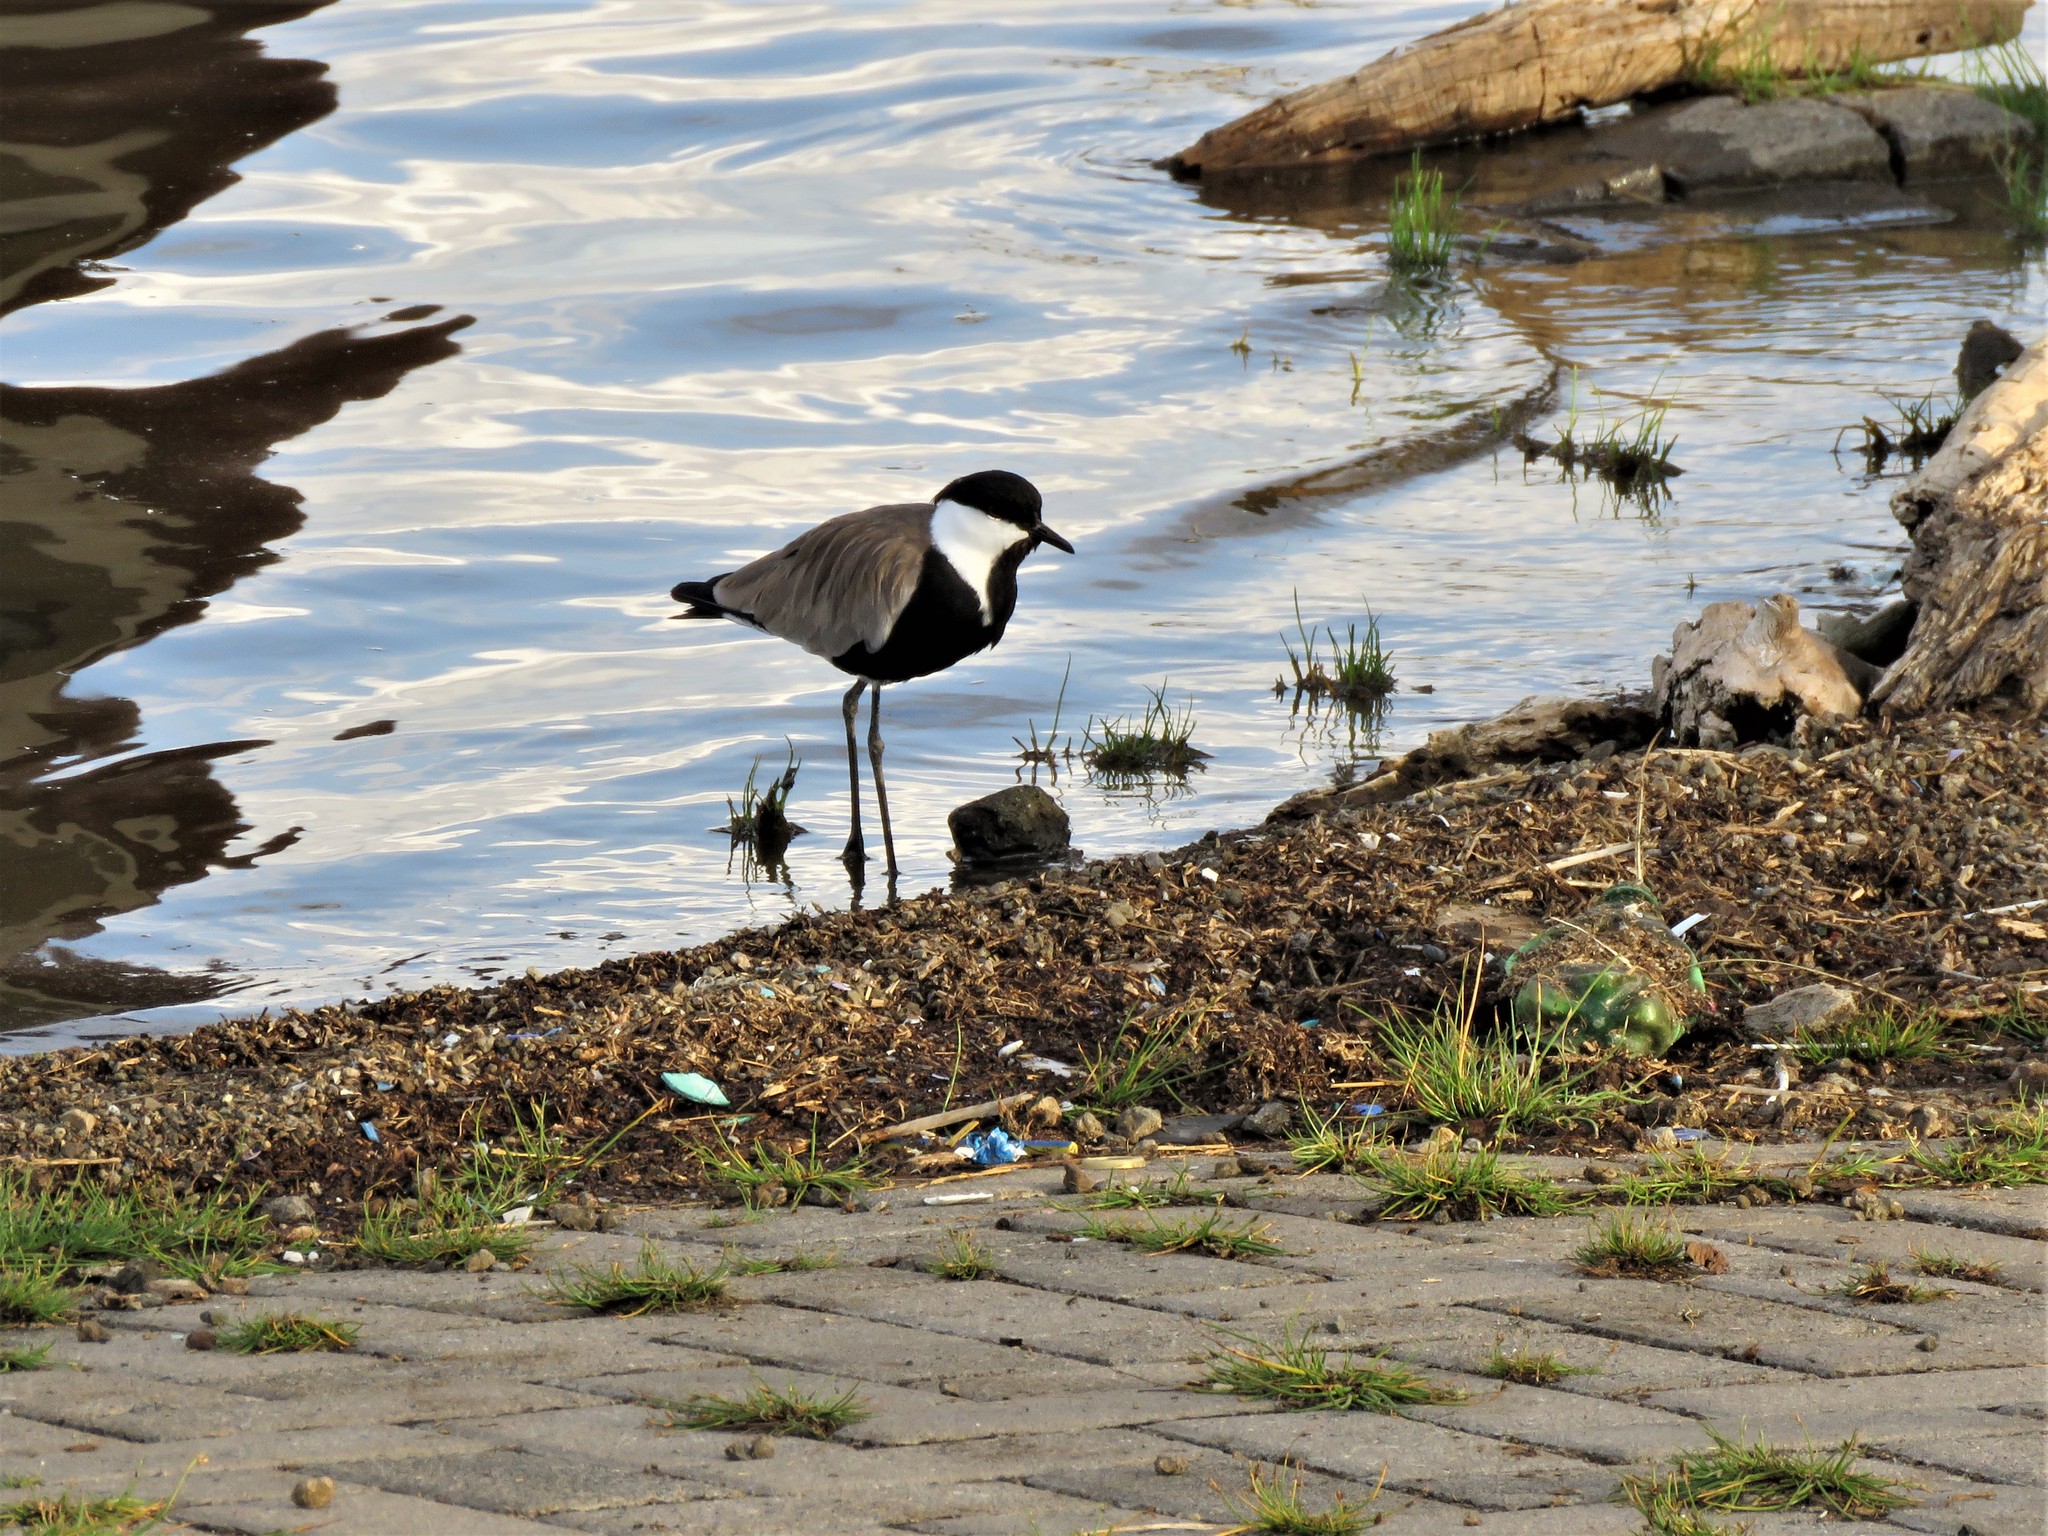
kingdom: Animalia
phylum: Chordata
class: Aves
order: Charadriiformes
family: Charadriidae
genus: Vanellus
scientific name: Vanellus spinosus
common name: Spur-winged lapwing
